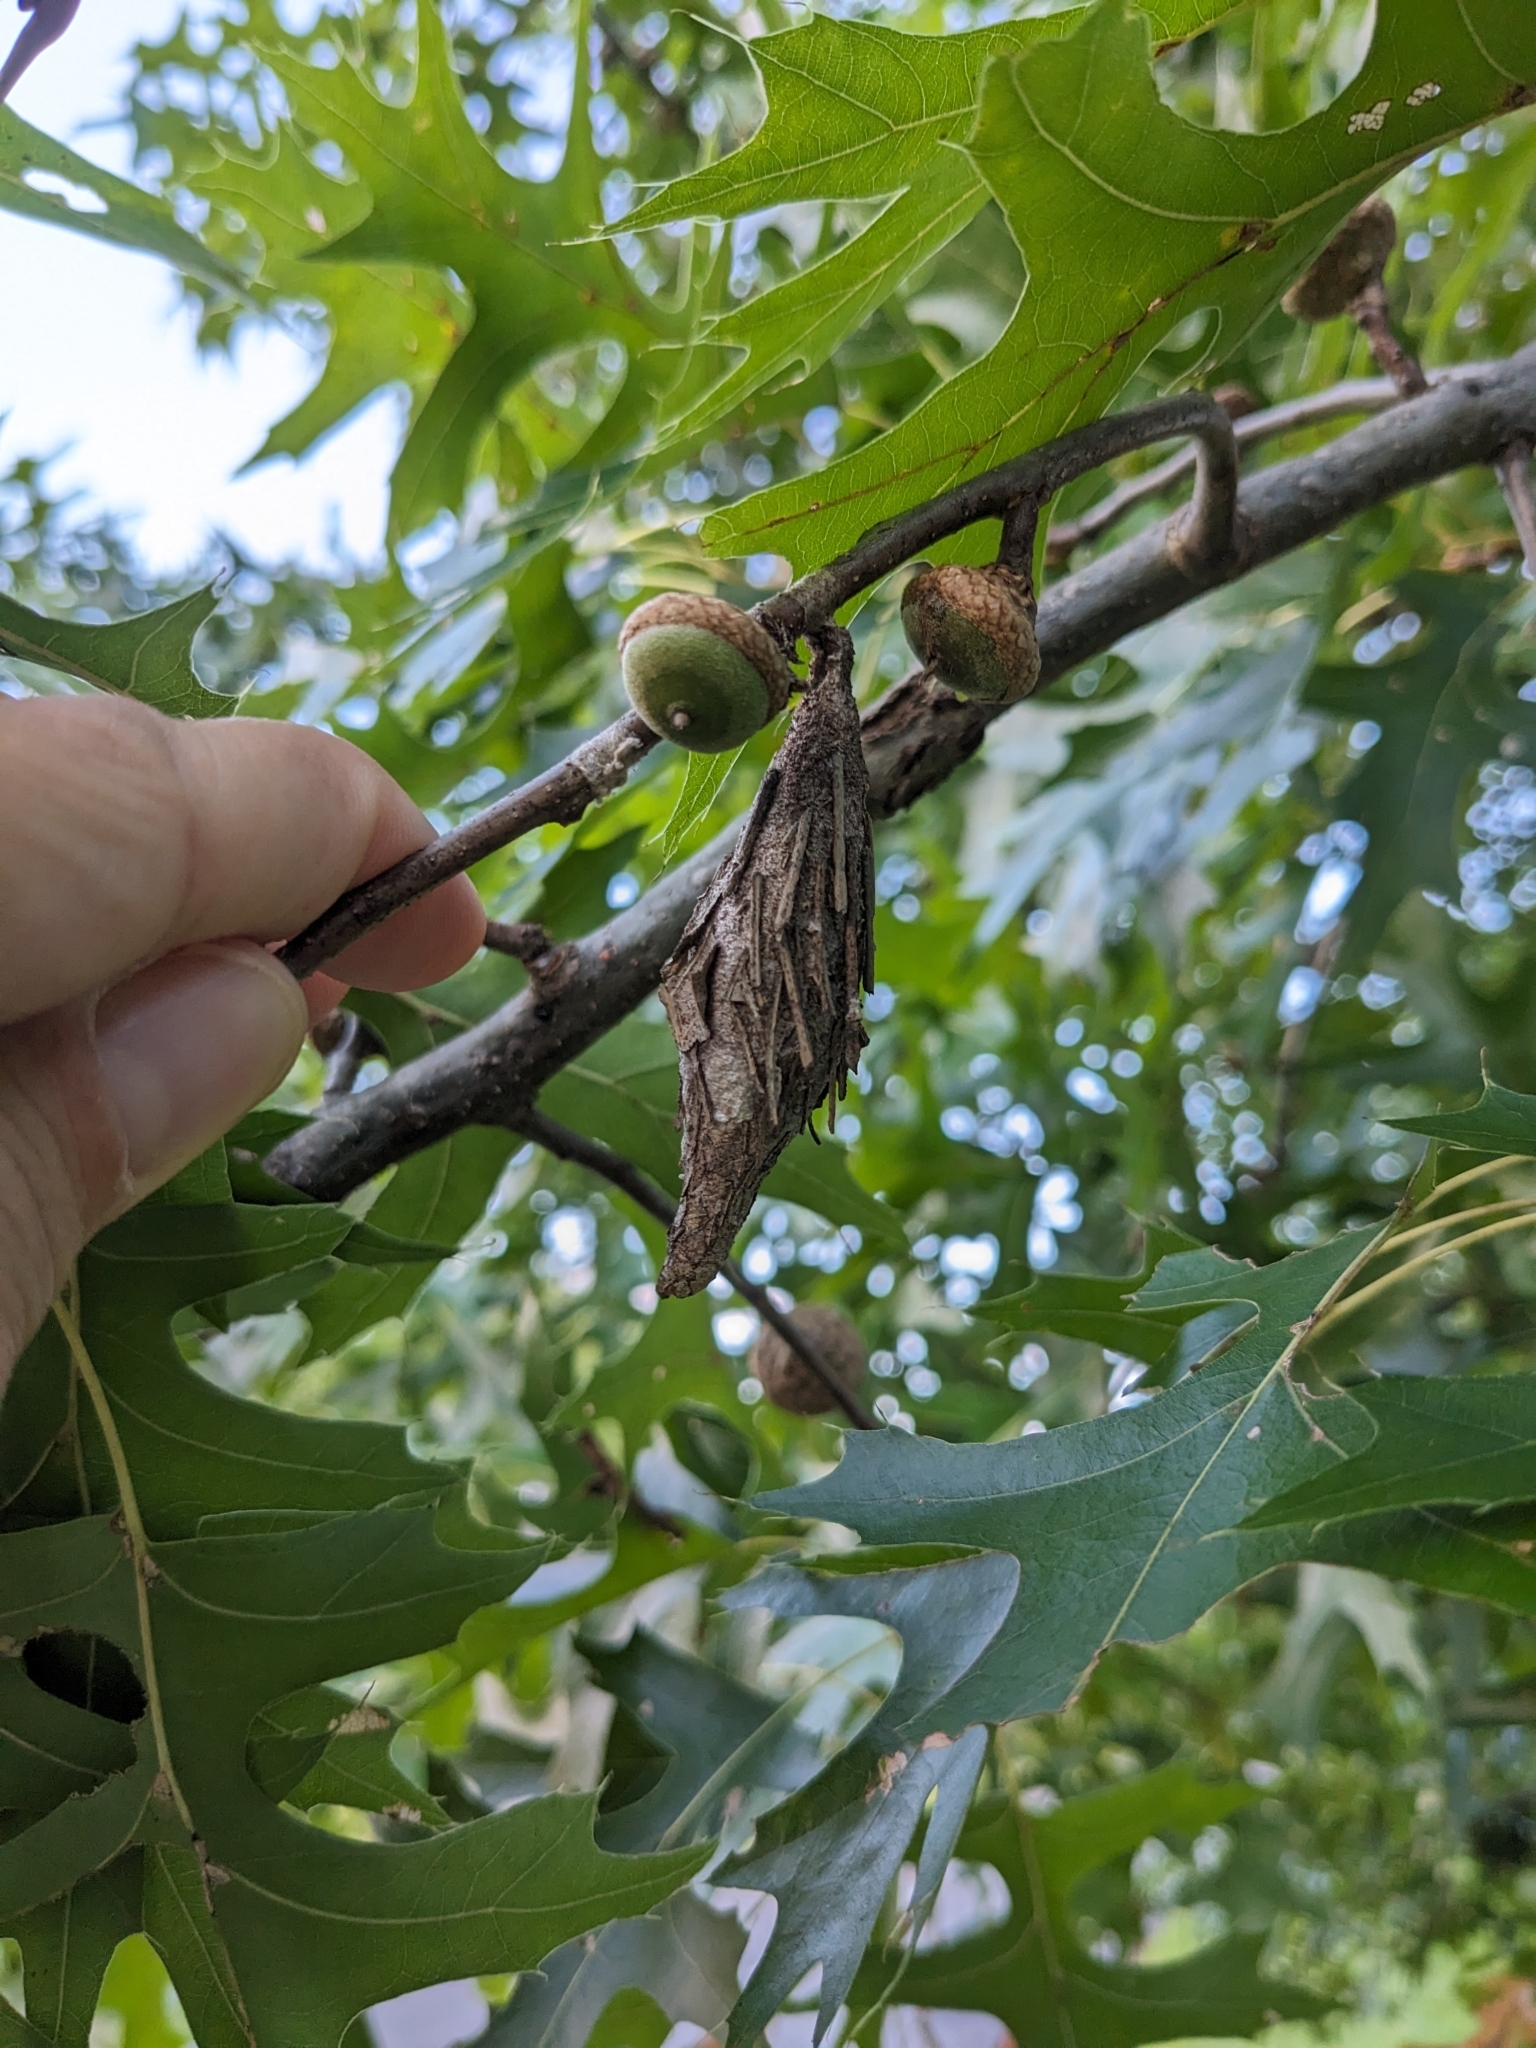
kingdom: Animalia
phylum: Arthropoda
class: Insecta
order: Lepidoptera
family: Psychidae
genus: Thyridopteryx
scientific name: Thyridopteryx ephemeraeformis
